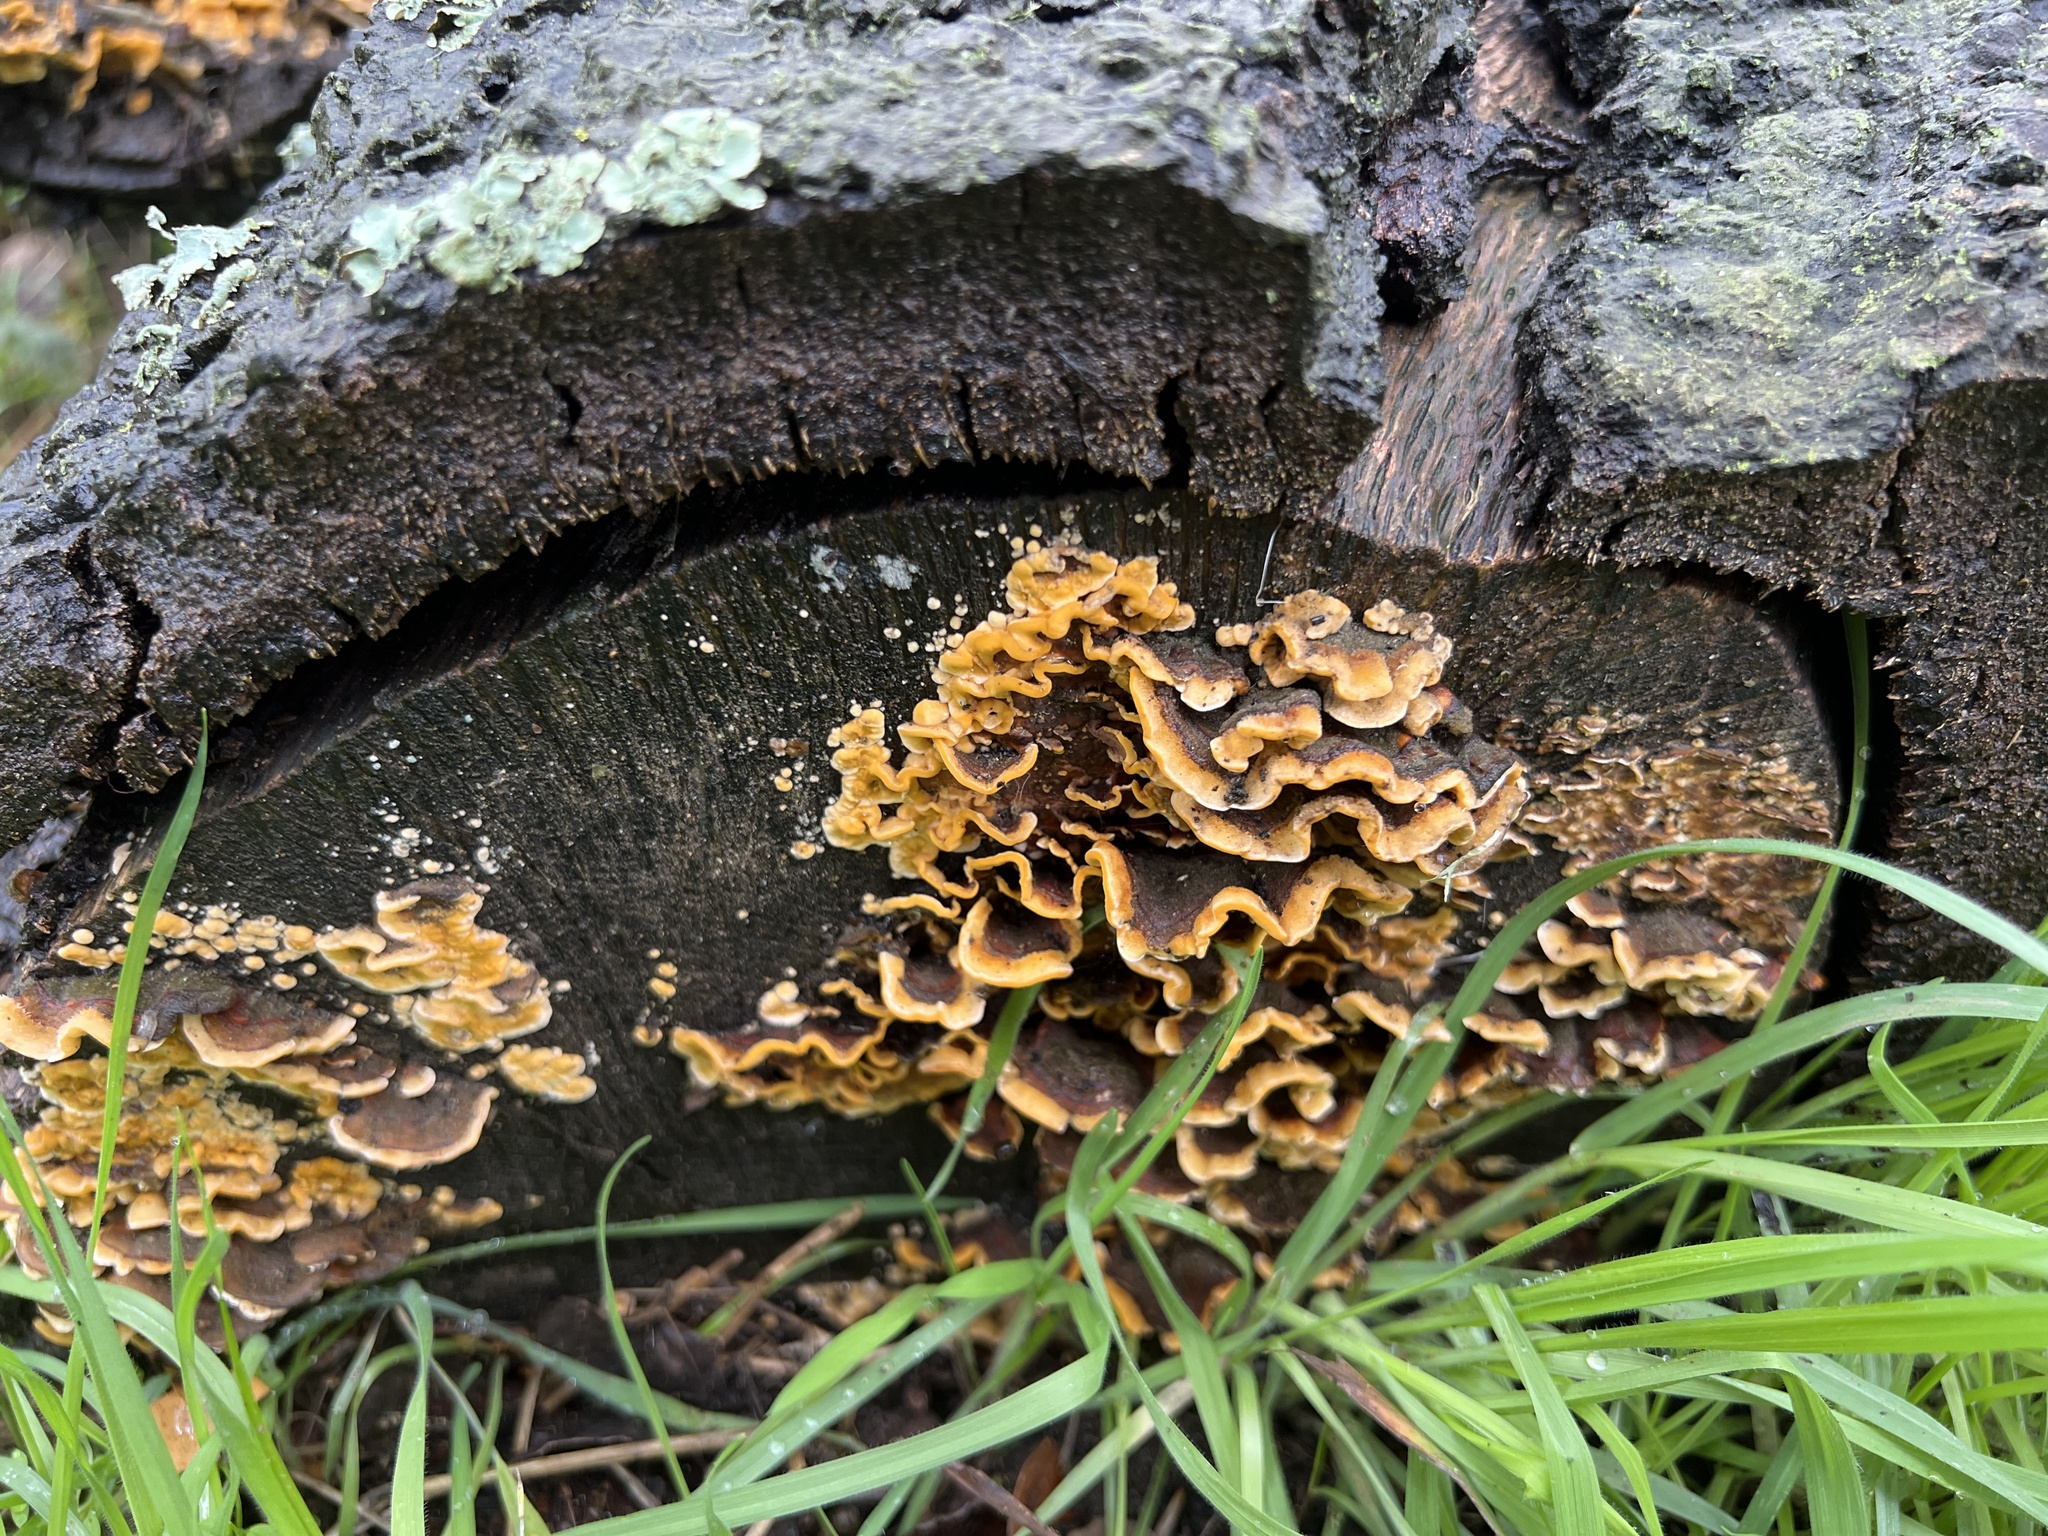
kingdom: Fungi
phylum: Basidiomycota
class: Agaricomycetes
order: Russulales
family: Stereaceae
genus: Stereum
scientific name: Stereum hirsutum
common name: Hairy curtain crust
